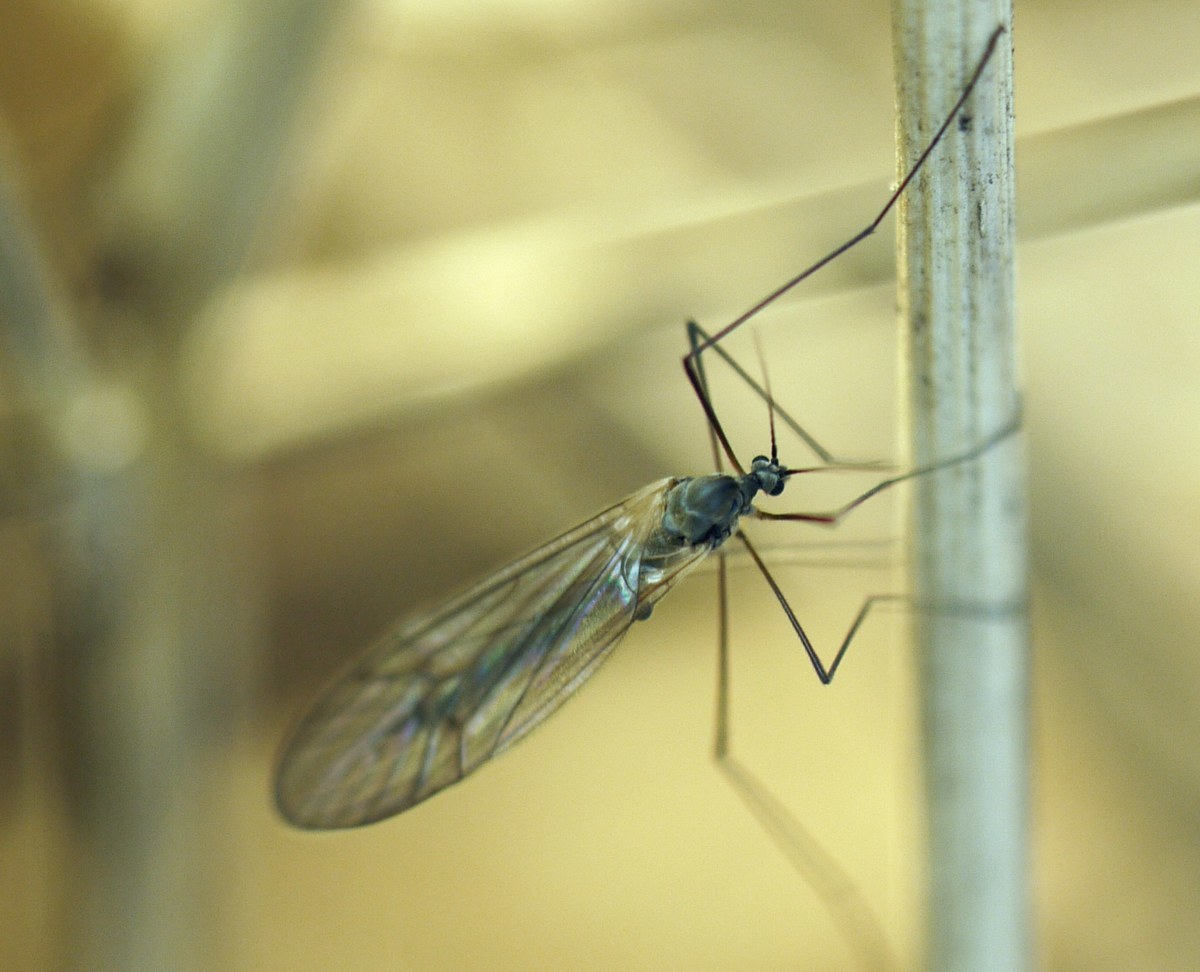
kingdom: Animalia
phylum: Arthropoda
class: Insecta
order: Diptera
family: Trichoceridae
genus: Trichocera
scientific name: Trichocera
